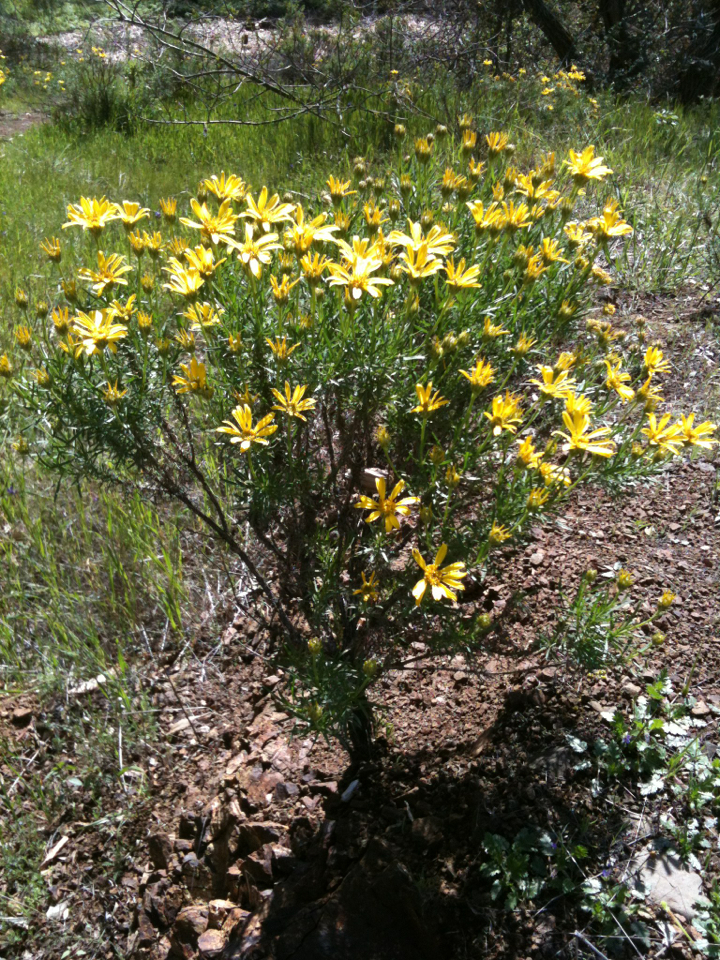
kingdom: Plantae
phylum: Tracheophyta
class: Magnoliopsida
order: Asterales
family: Asteraceae
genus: Ericameria
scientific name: Ericameria linearifolia
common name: Interior goldenbush
